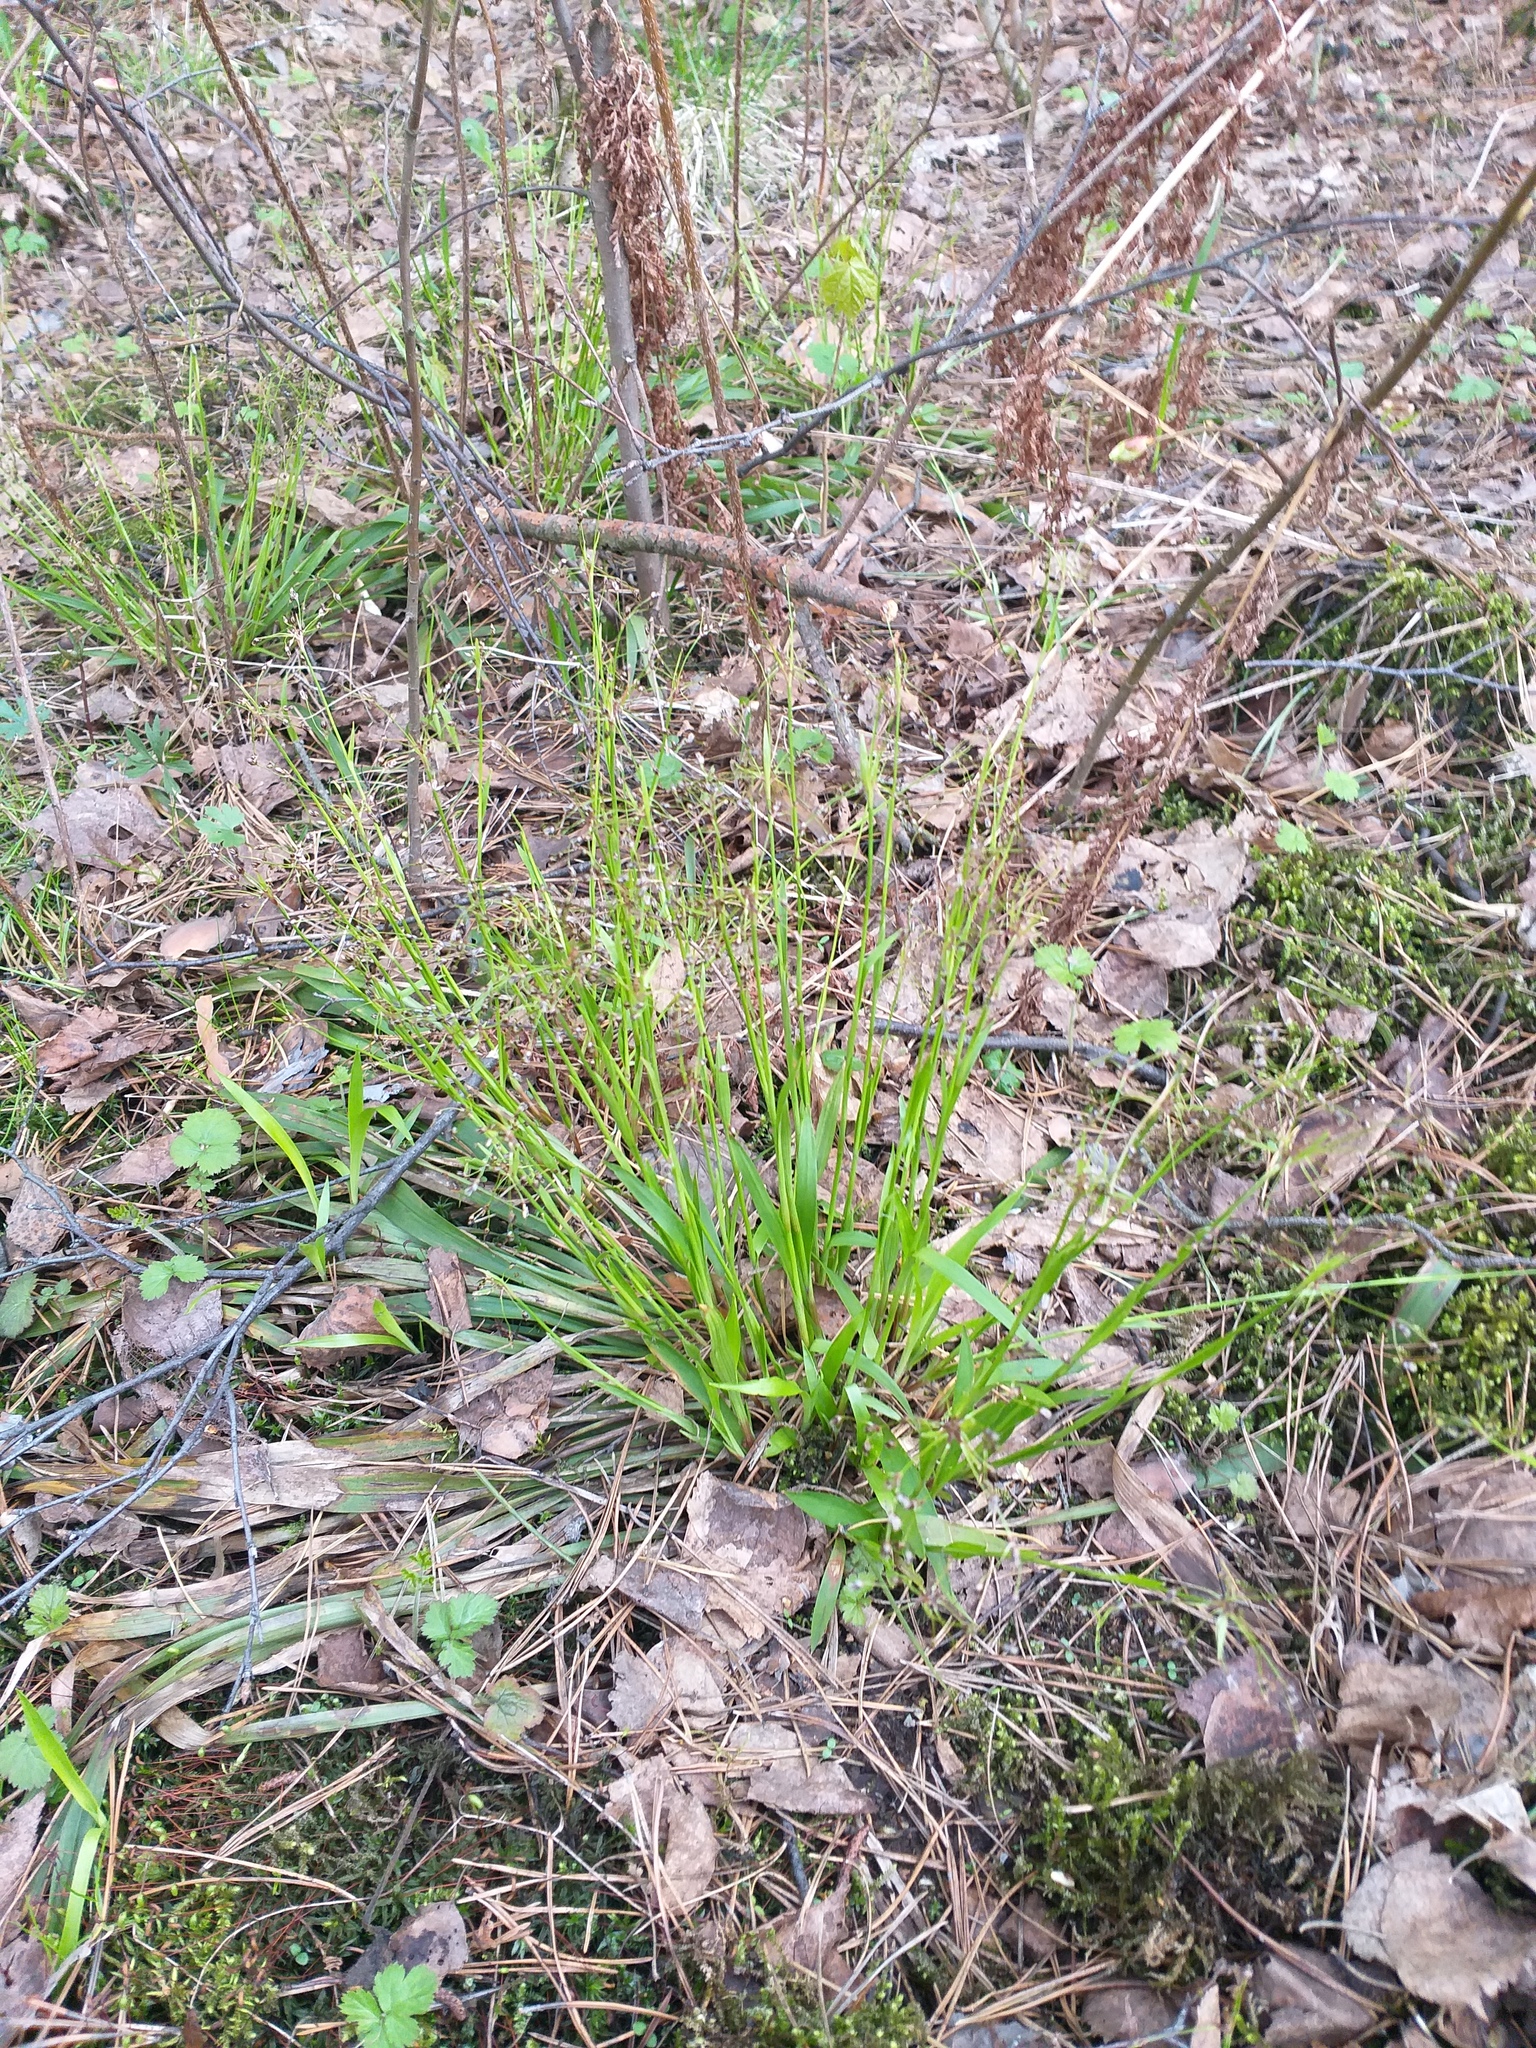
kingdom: Plantae
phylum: Tracheophyta
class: Liliopsida
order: Poales
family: Juncaceae
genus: Luzula
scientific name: Luzula pilosa
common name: Hairy wood-rush
